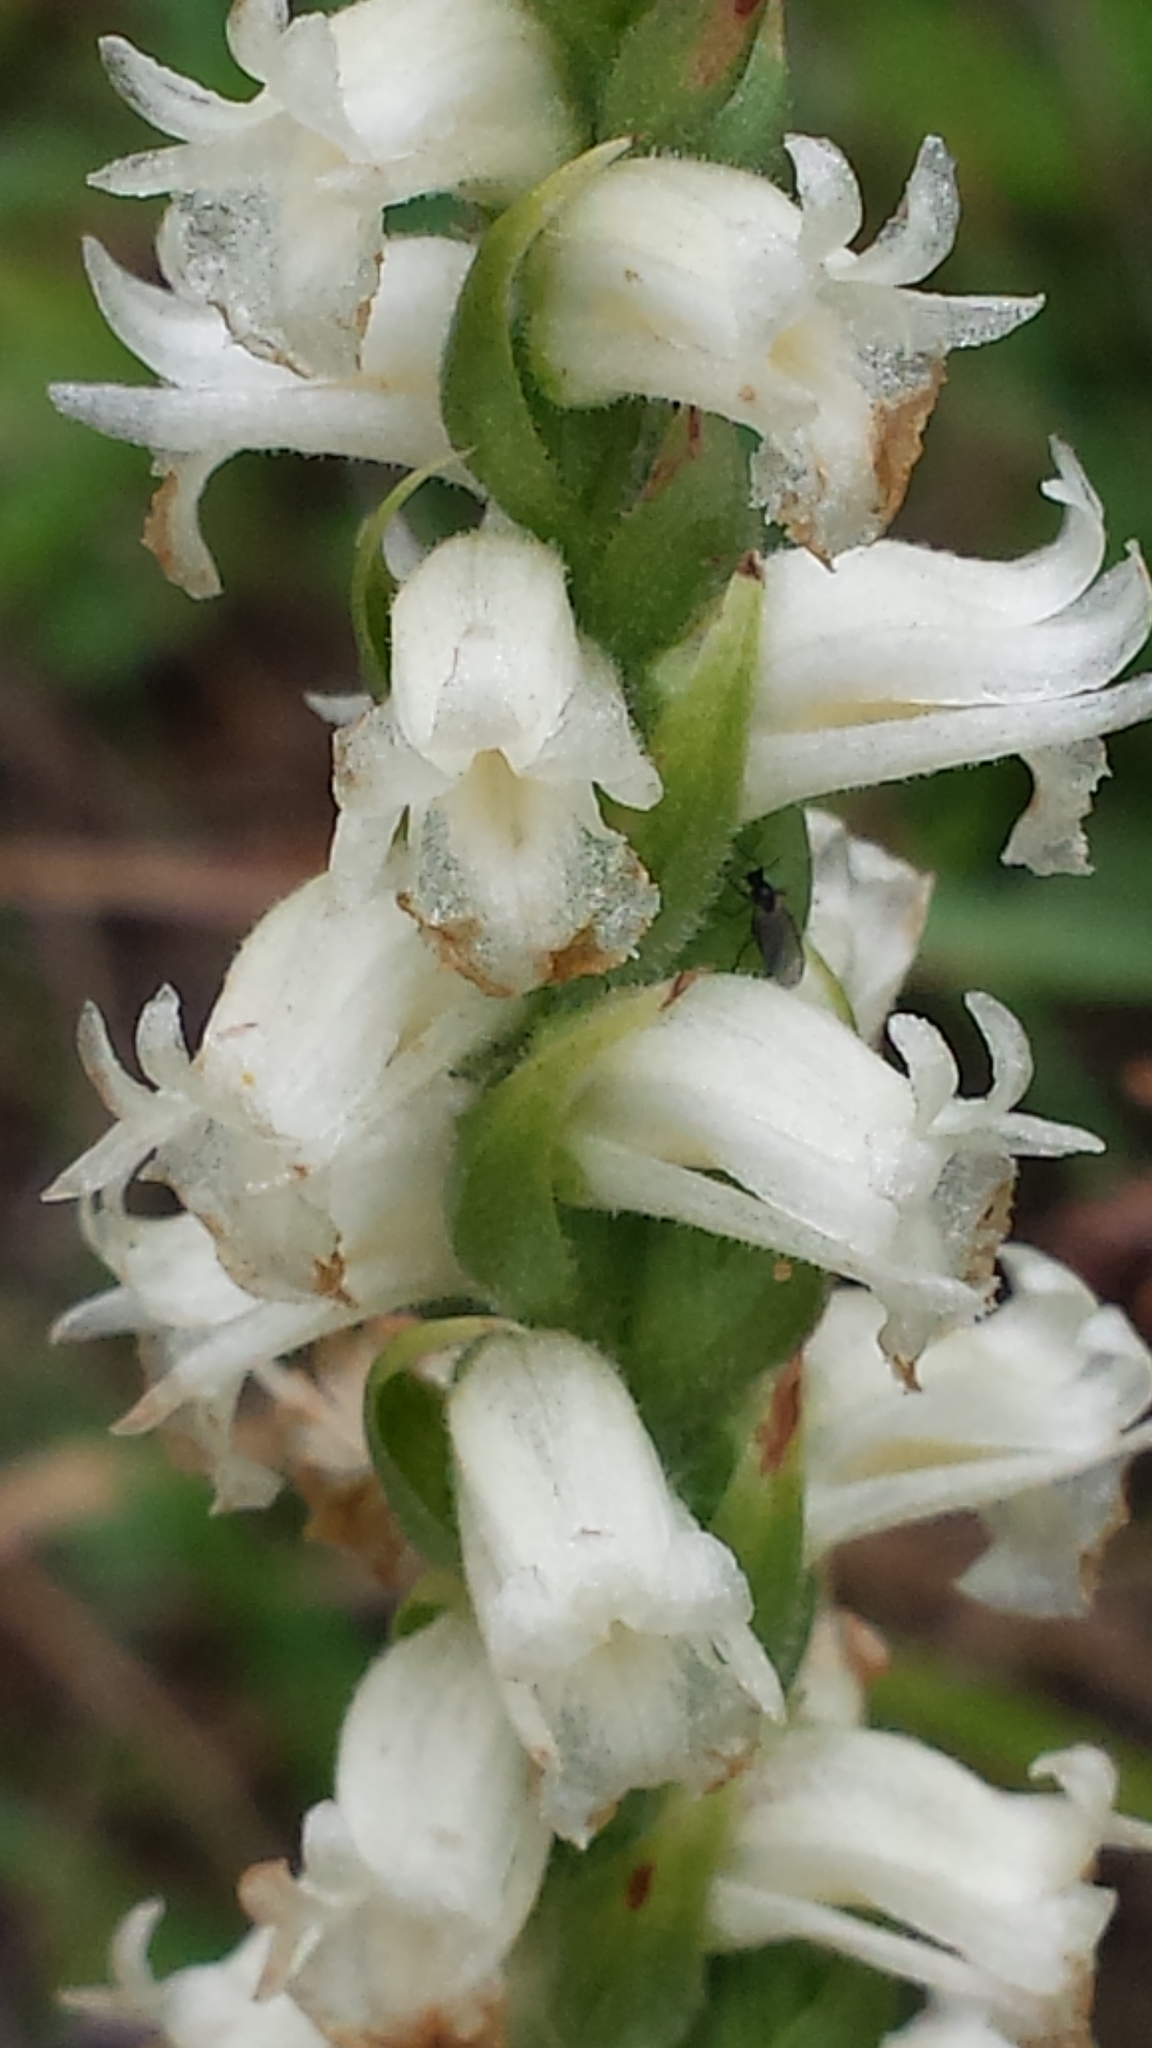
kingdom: Plantae
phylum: Tracheophyta
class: Liliopsida
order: Asparagales
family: Orchidaceae
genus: Spiranthes
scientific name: Spiranthes ochroleuca
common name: Yellow ladies'-tresses
